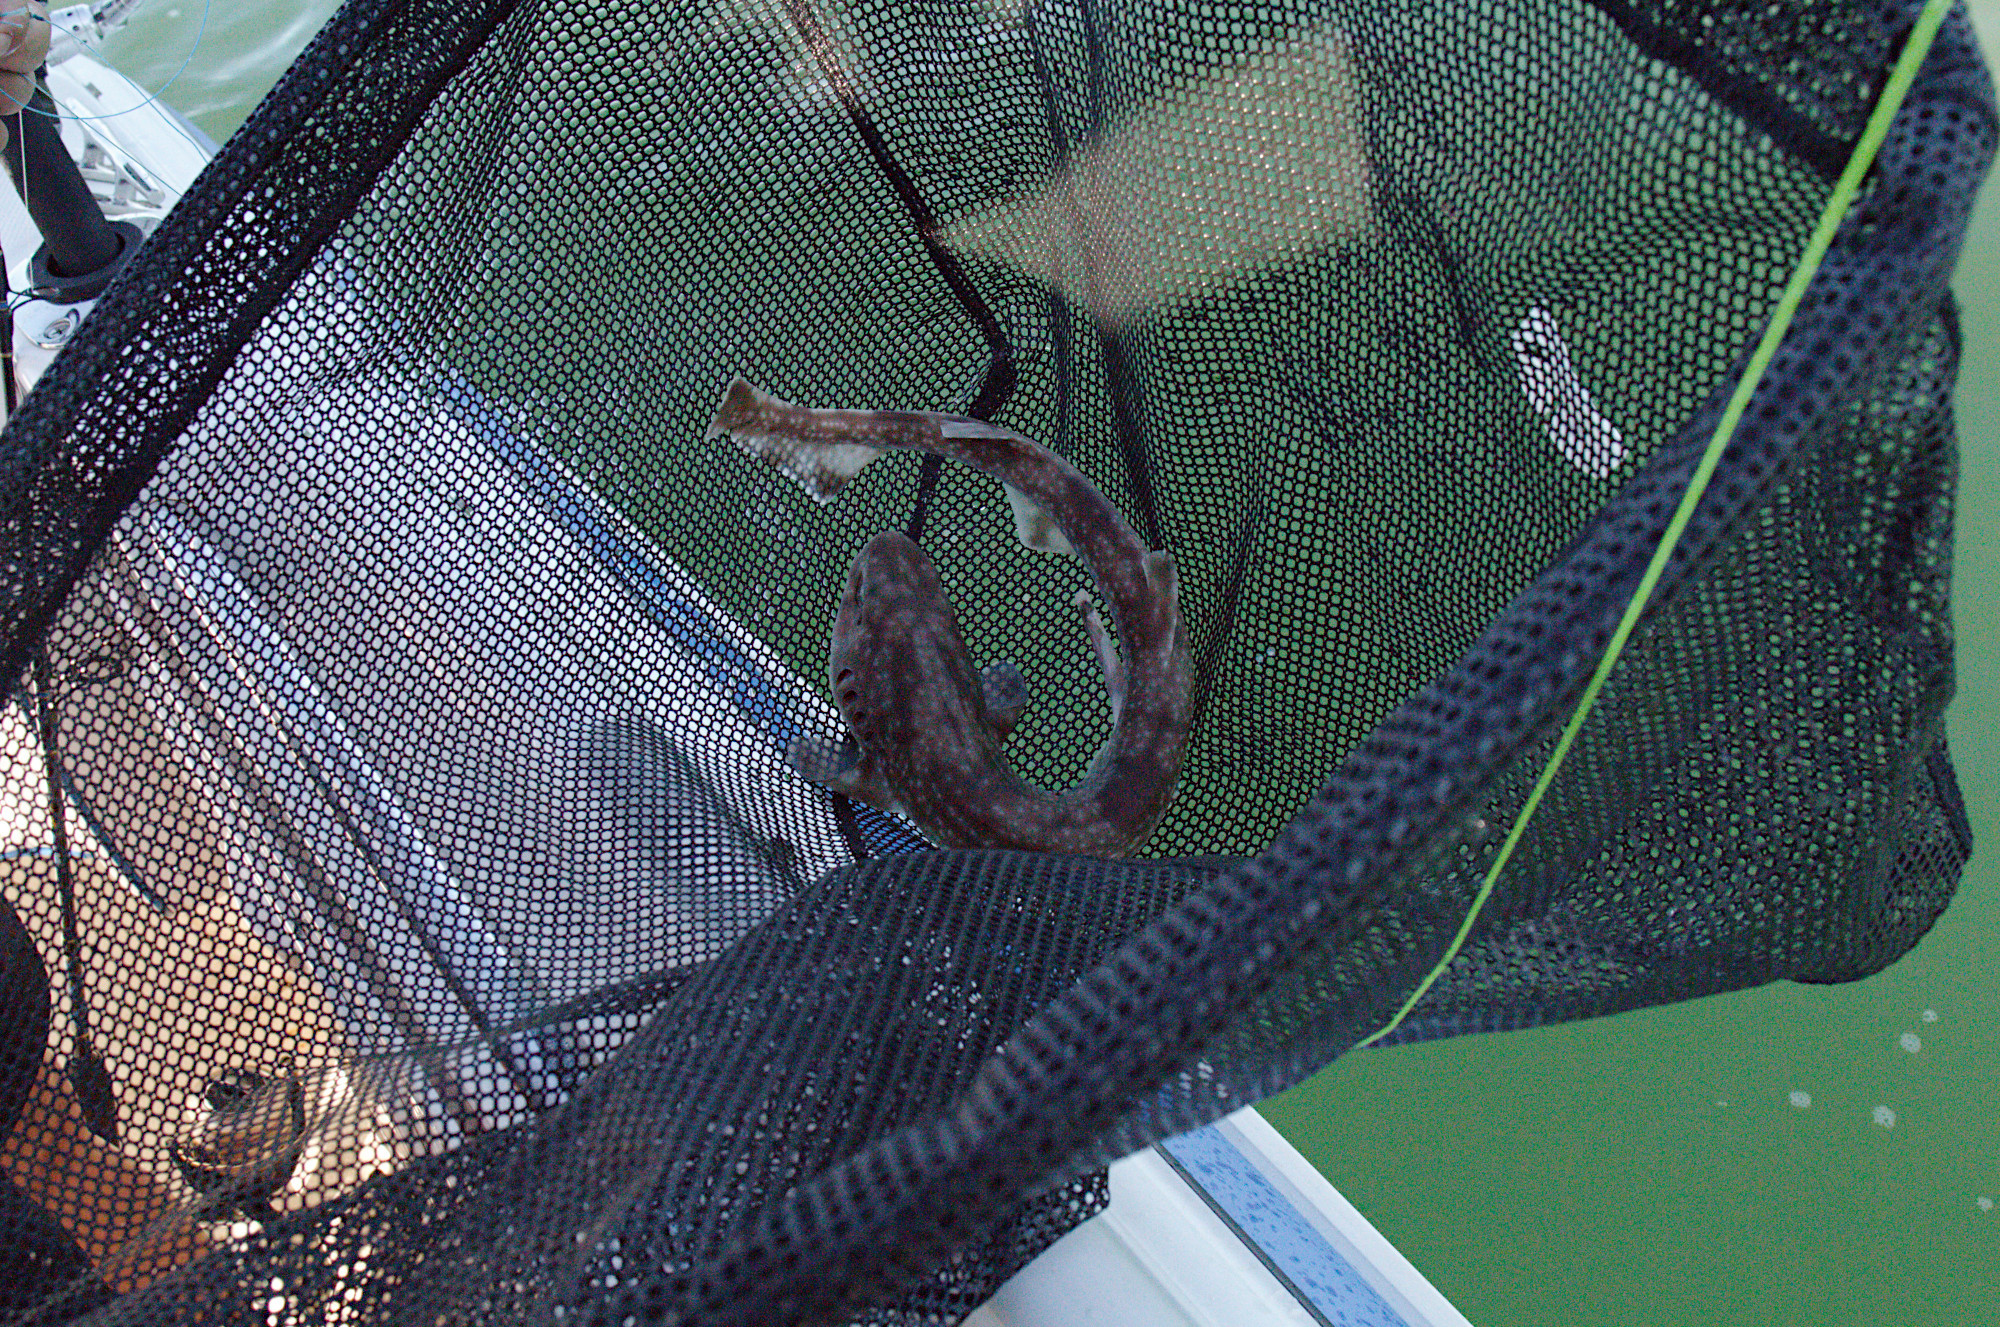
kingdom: Animalia
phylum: Chordata
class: Elasmobranchii
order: Carcharhiniformes
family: Scyliorhinidae
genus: Asymbolus
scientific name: Asymbolus vincenti
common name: Gulf catshark
